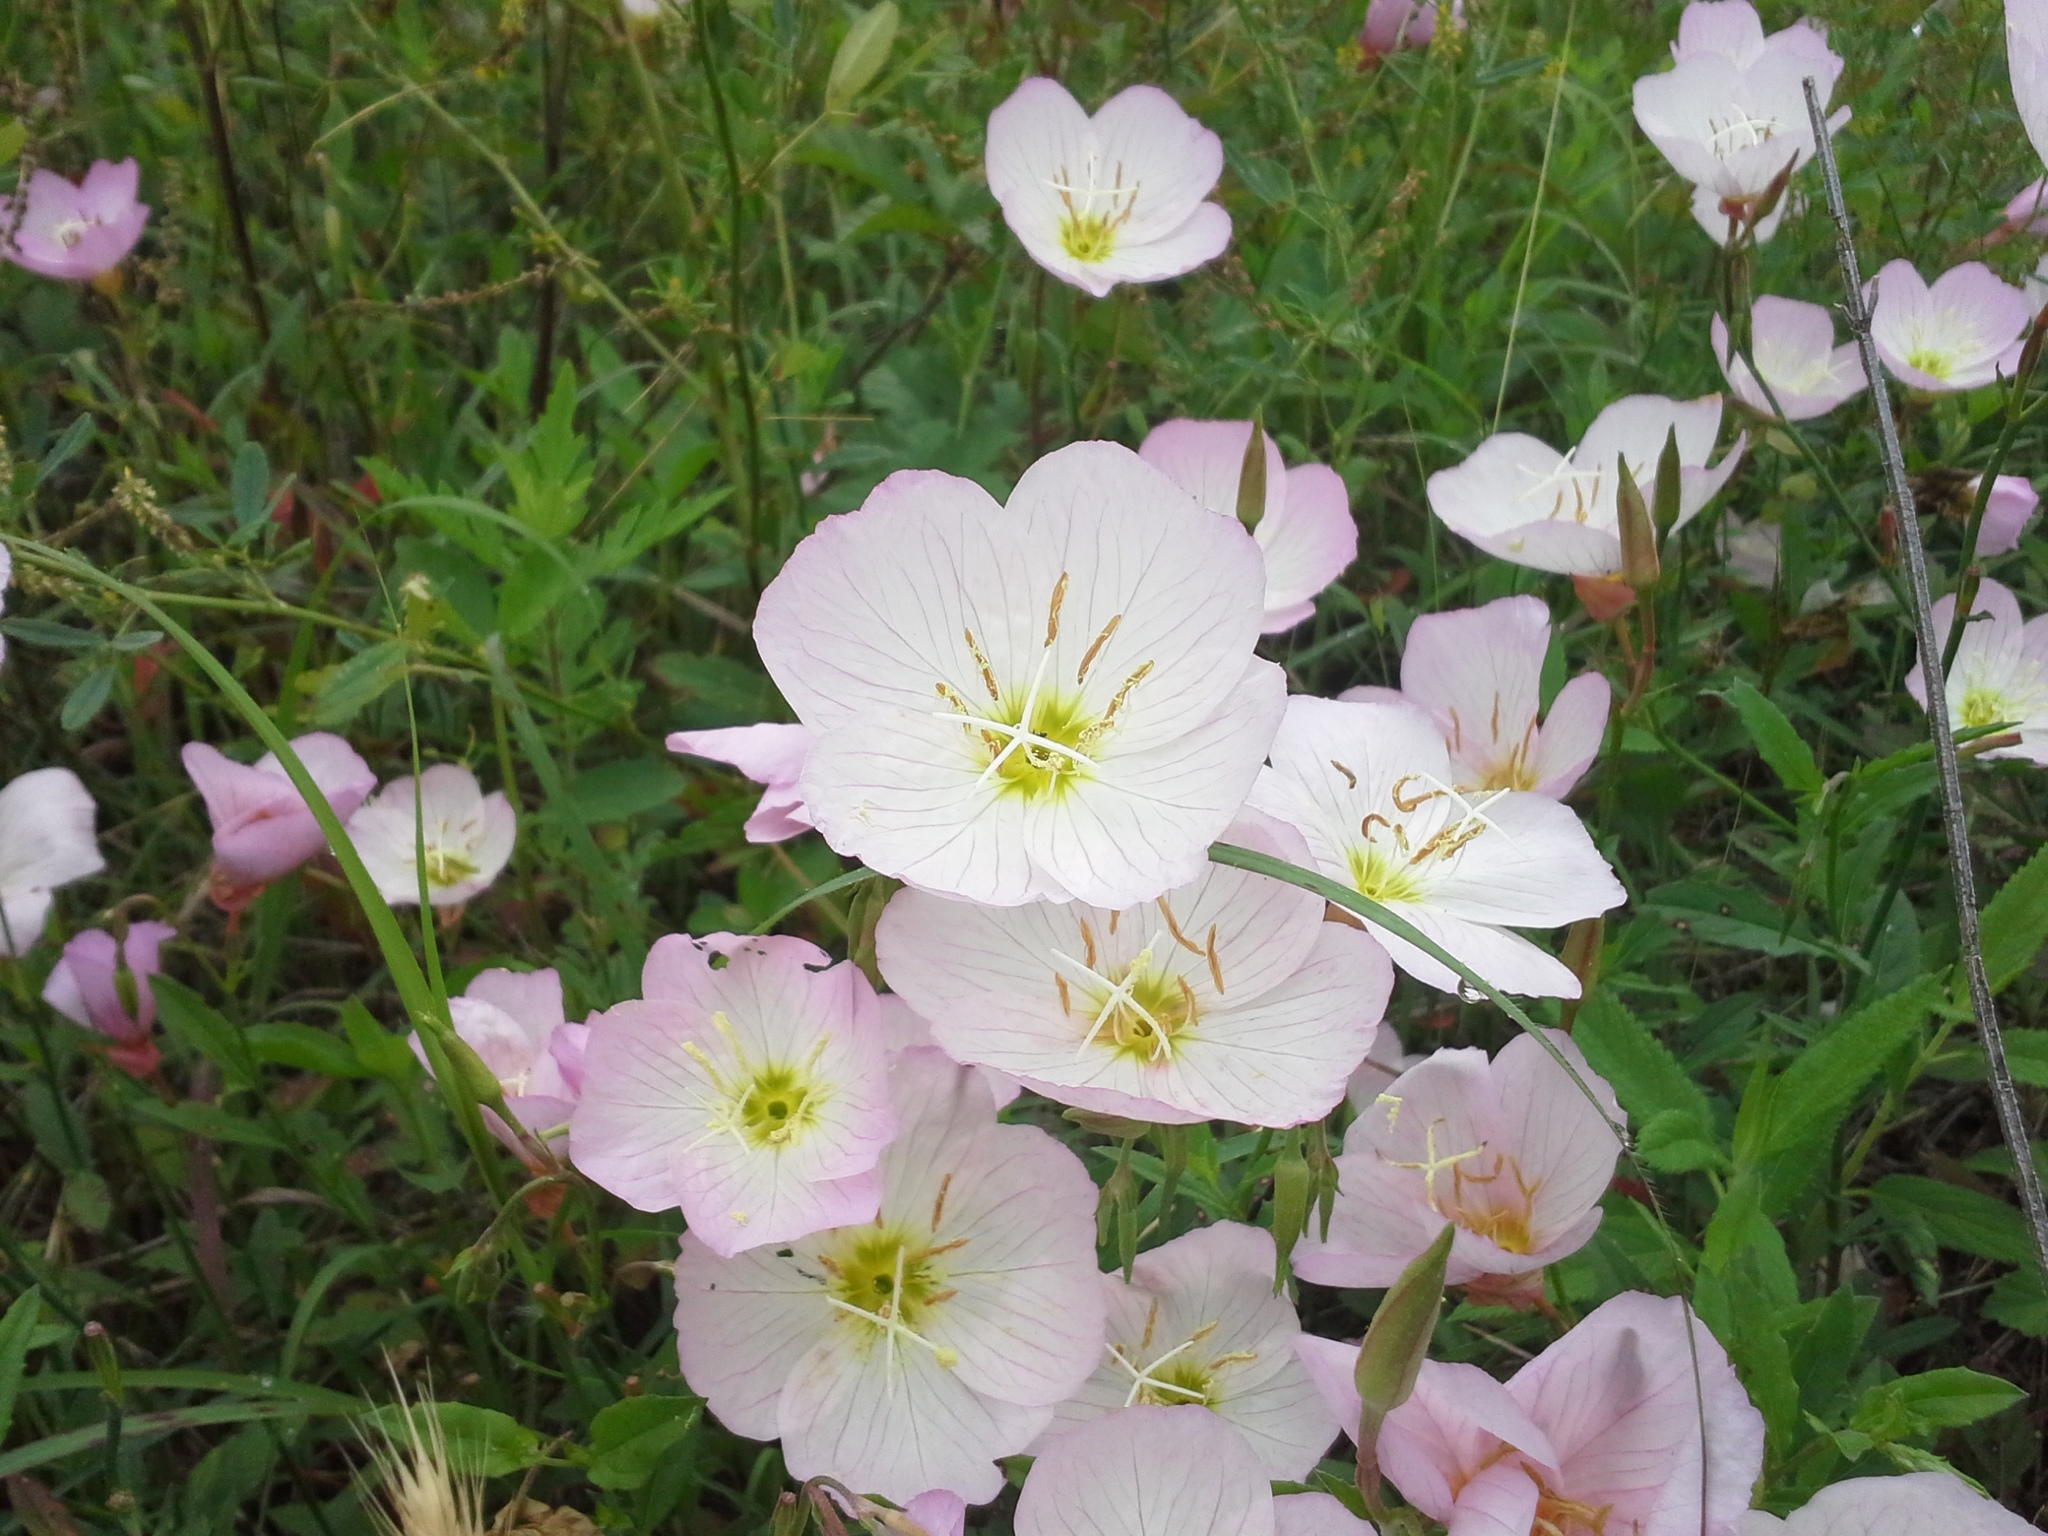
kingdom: Plantae
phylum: Tracheophyta
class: Magnoliopsida
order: Myrtales
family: Onagraceae
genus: Oenothera
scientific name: Oenothera speciosa
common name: White evening-primrose
